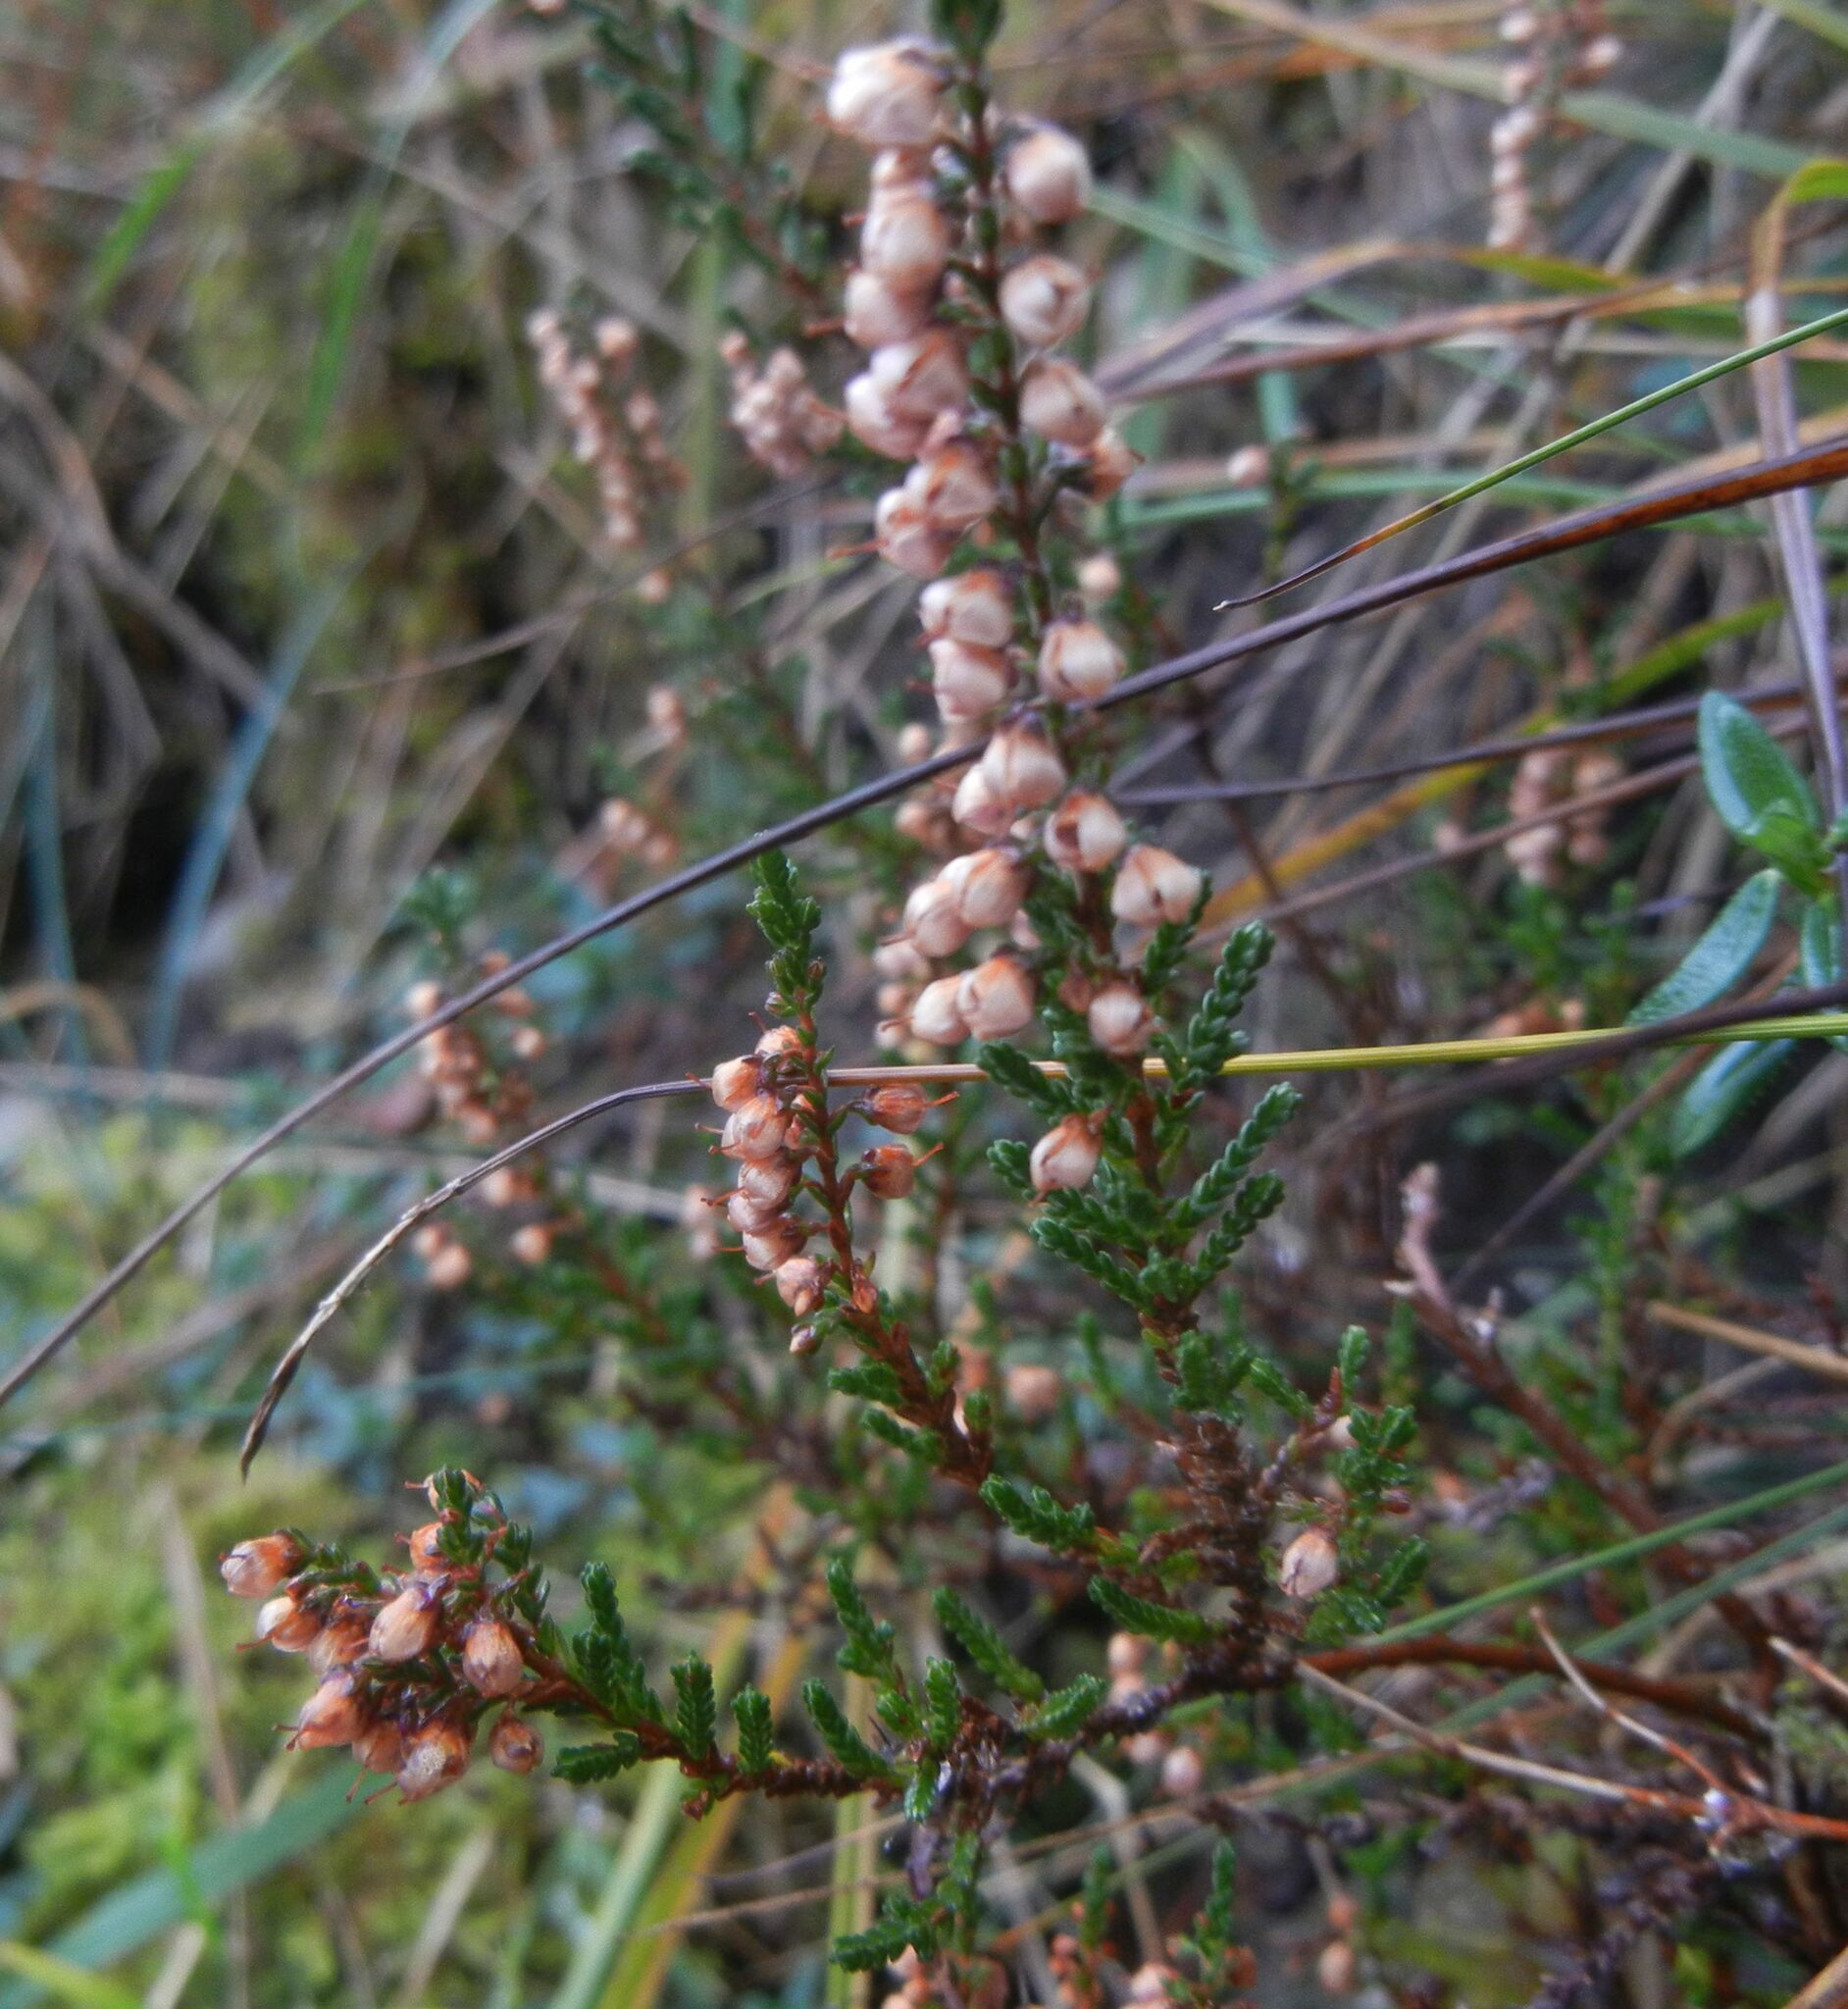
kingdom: Plantae
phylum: Tracheophyta
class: Magnoliopsida
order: Ericales
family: Ericaceae
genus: Calluna
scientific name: Calluna vulgaris
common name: Heather
